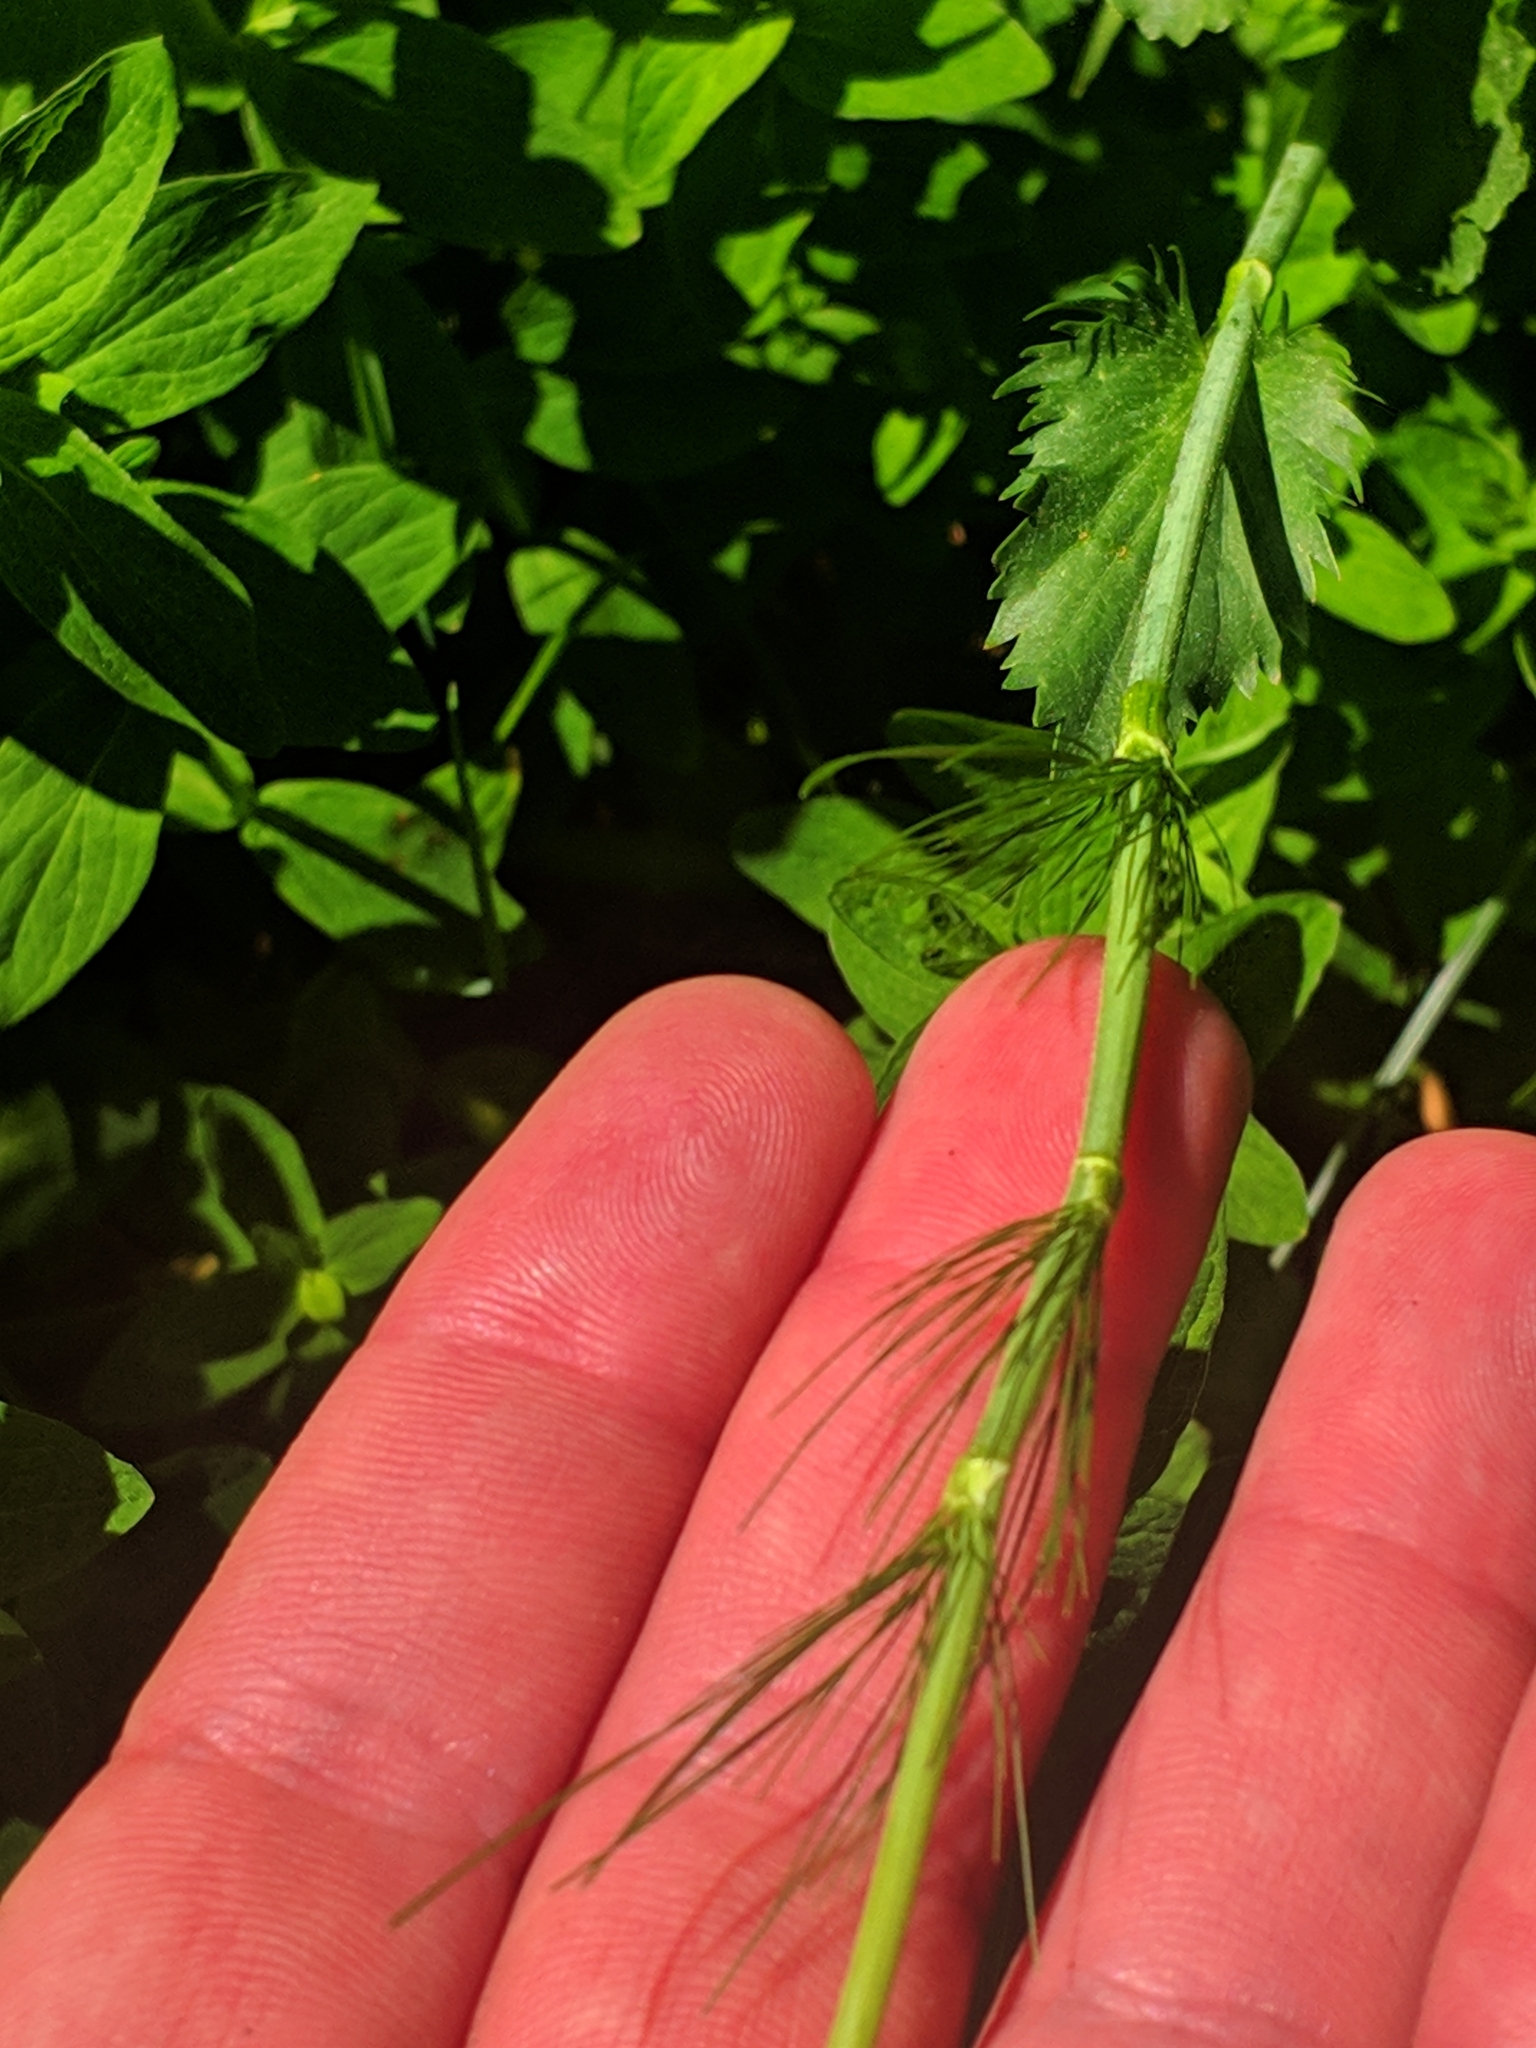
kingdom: Plantae
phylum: Tracheophyta
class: Magnoliopsida
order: Apiales
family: Apiaceae
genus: Pimpinella
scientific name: Pimpinella serbica
